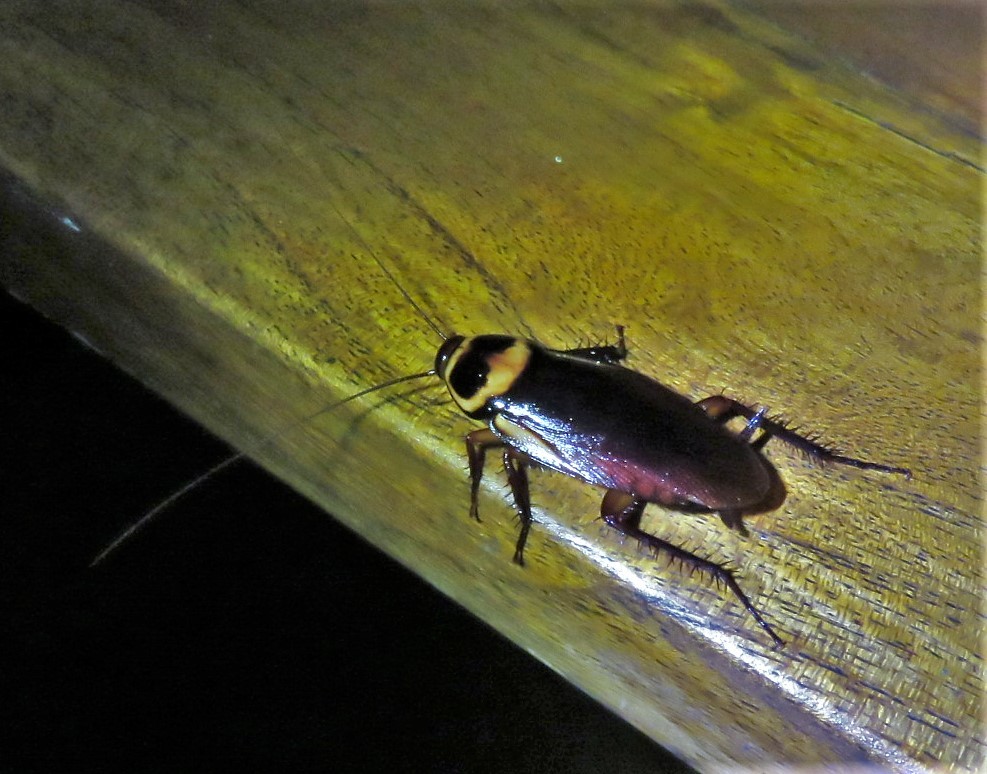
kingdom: Animalia
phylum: Arthropoda
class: Insecta
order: Blattodea
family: Blattidae
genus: Periplaneta
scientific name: Periplaneta australasiae
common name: Australian cockroach
